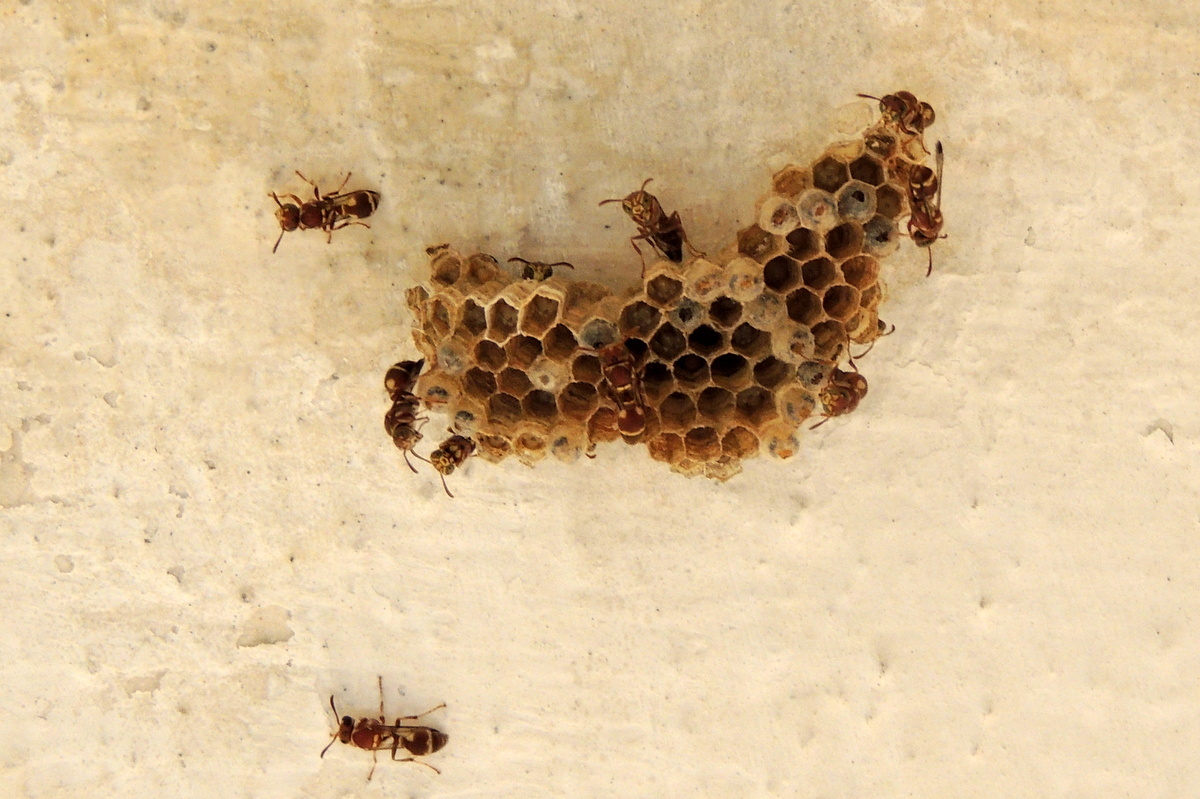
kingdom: Animalia
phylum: Arthropoda
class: Insecta
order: Hymenoptera
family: Vespidae
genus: Ropalidia
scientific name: Ropalidia cyathiformis
